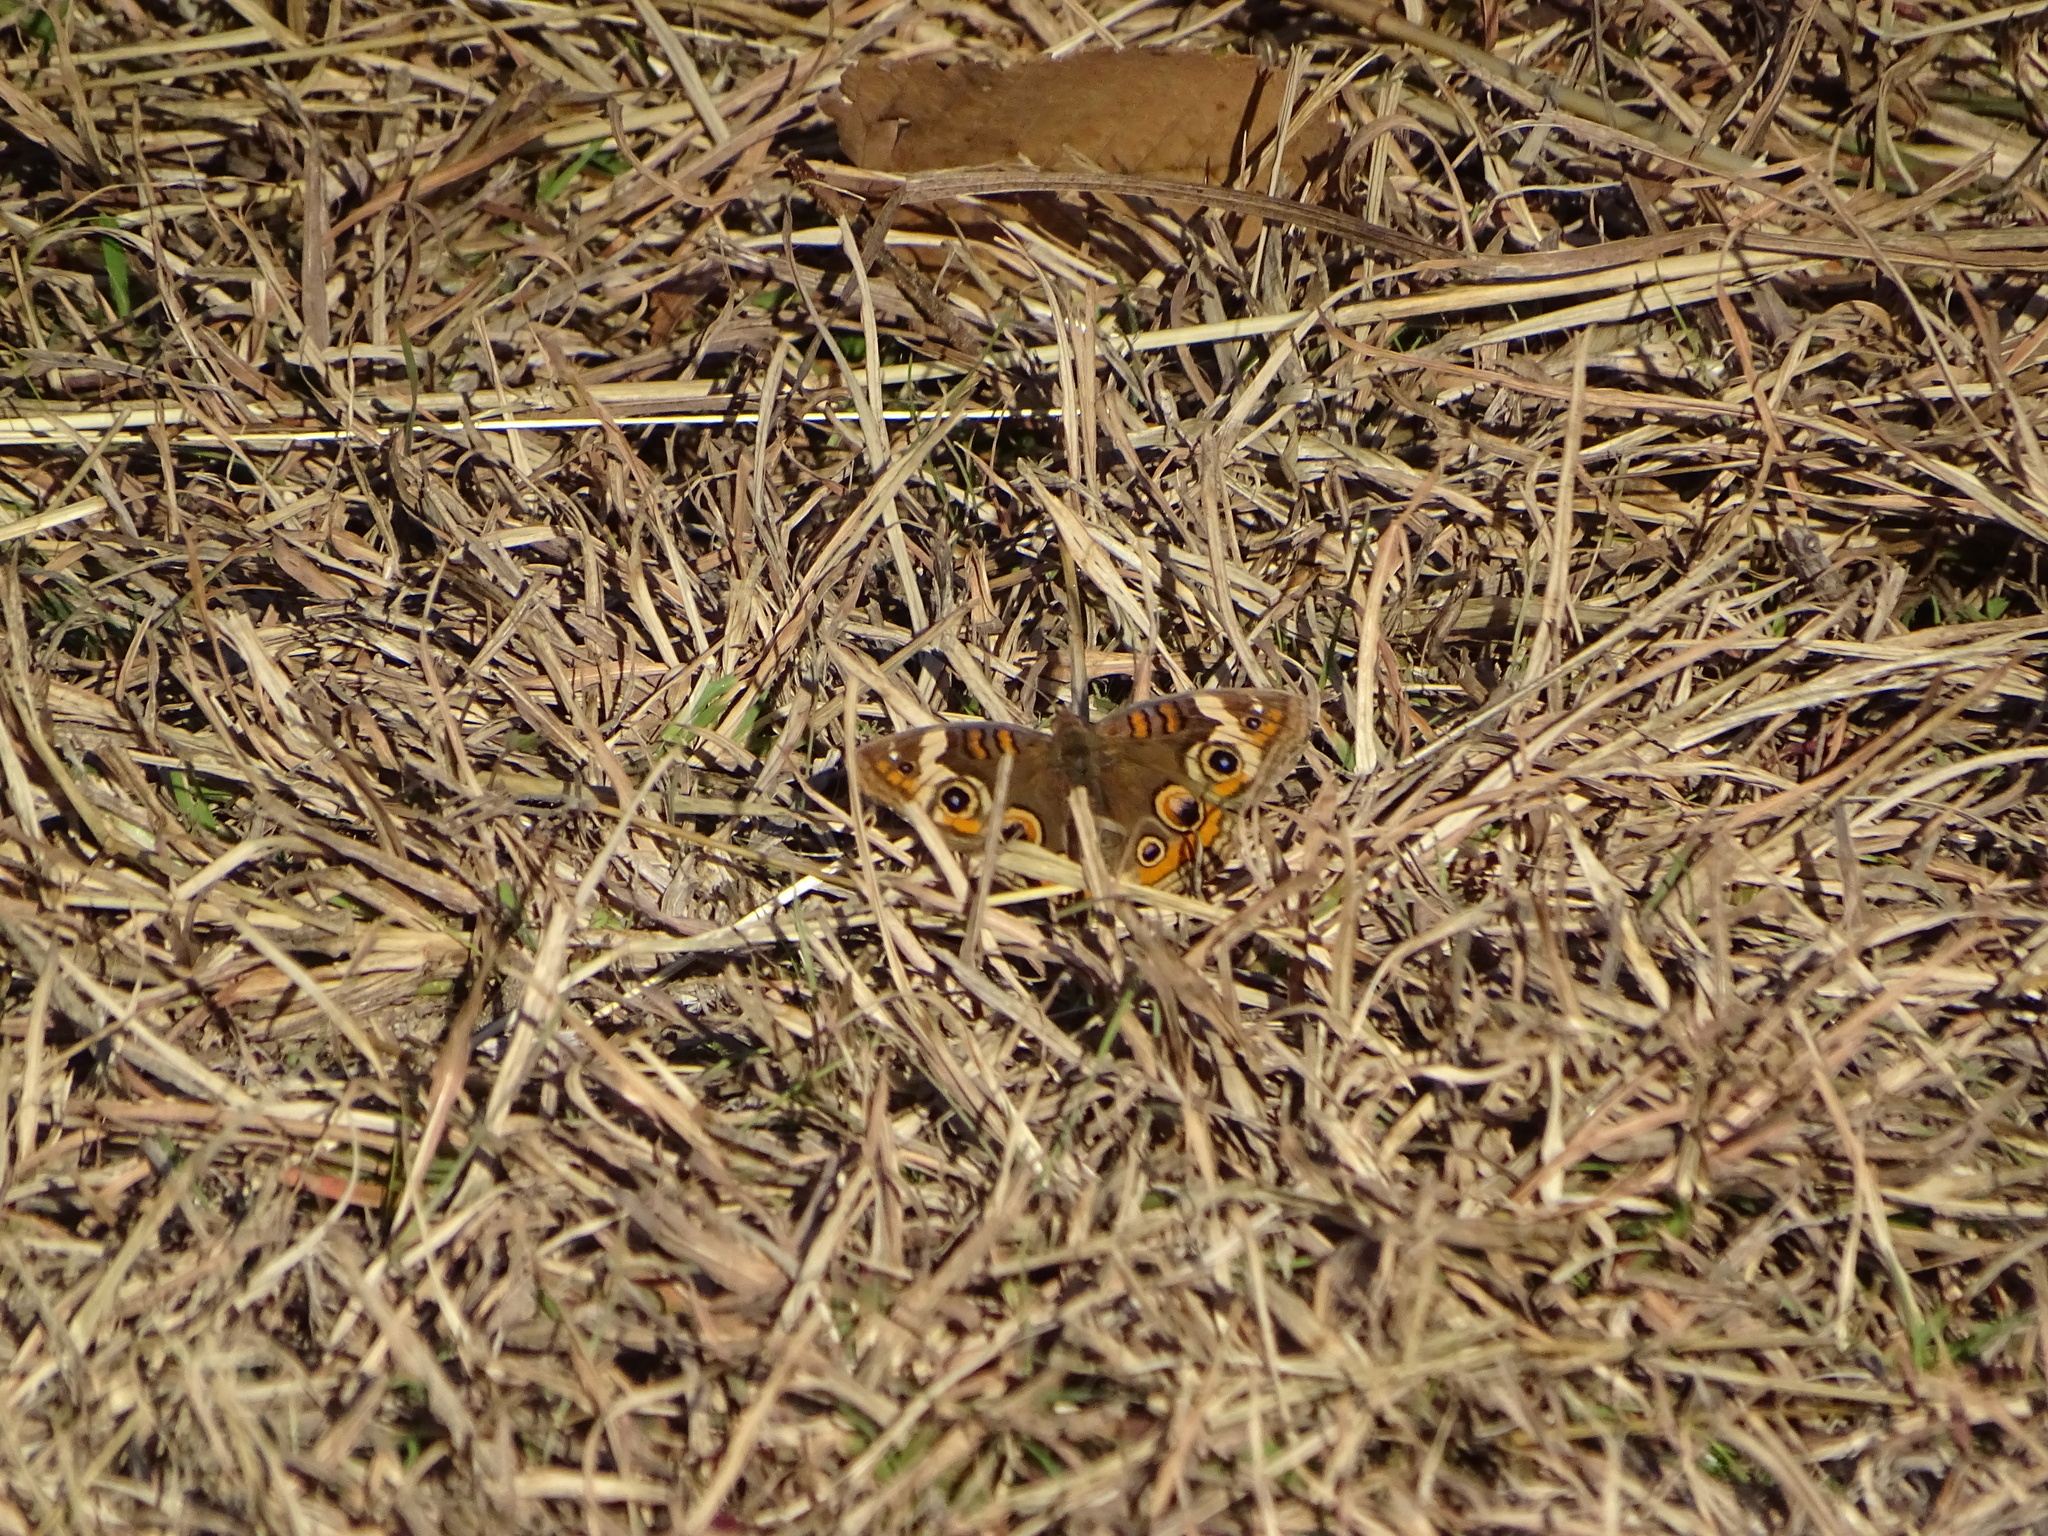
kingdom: Animalia
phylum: Arthropoda
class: Insecta
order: Lepidoptera
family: Nymphalidae
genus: Junonia
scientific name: Junonia coenia
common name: Common buckeye
